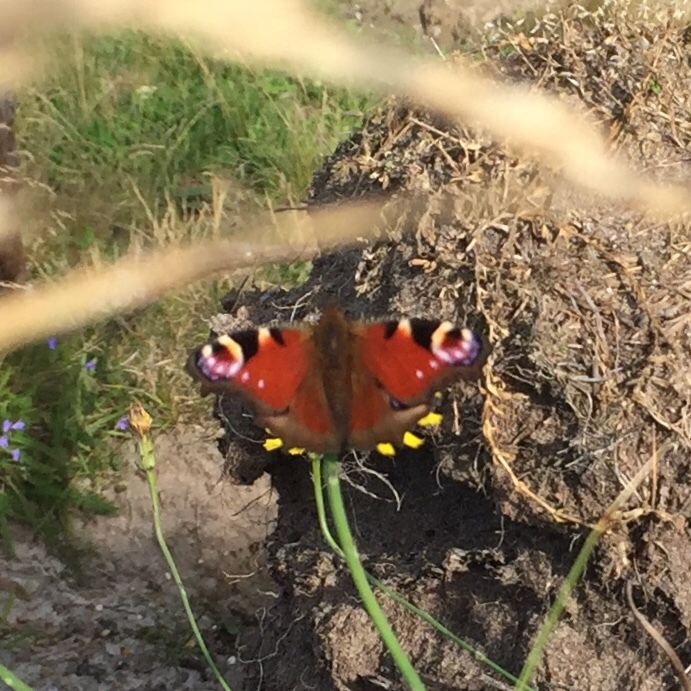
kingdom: Animalia
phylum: Arthropoda
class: Insecta
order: Lepidoptera
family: Nymphalidae
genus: Aglais
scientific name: Aglais io
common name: Peacock
